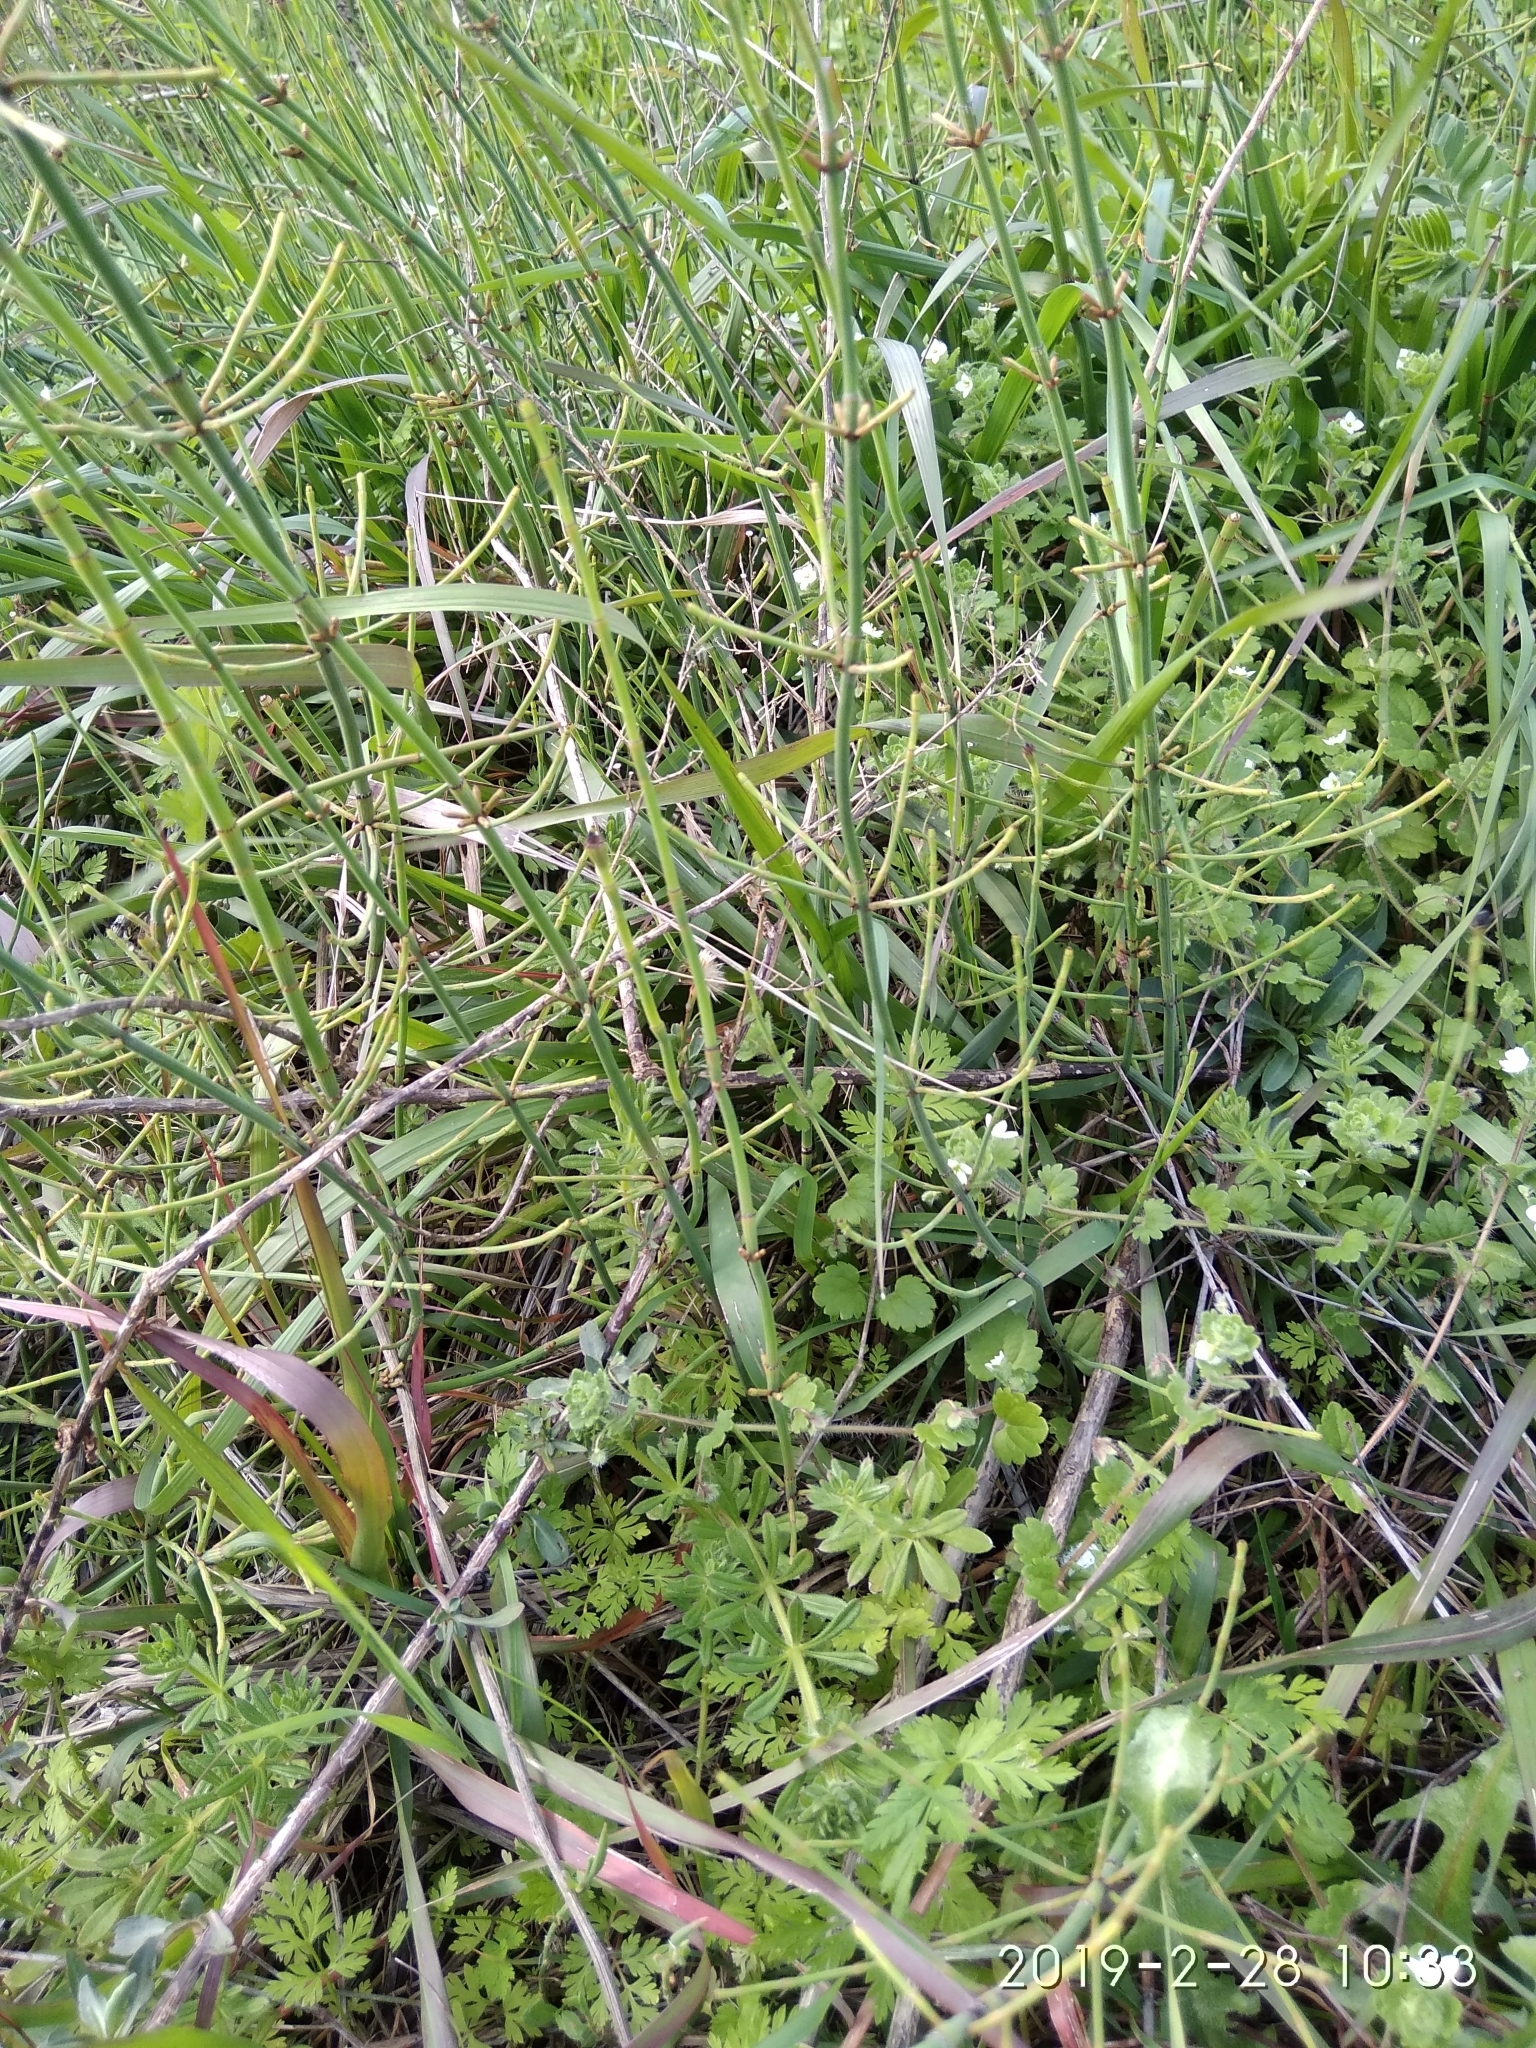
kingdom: Plantae
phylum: Tracheophyta
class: Polypodiopsida
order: Equisetales
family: Equisetaceae
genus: Equisetum
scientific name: Equisetum ramosissimum
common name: Branched horsetail
